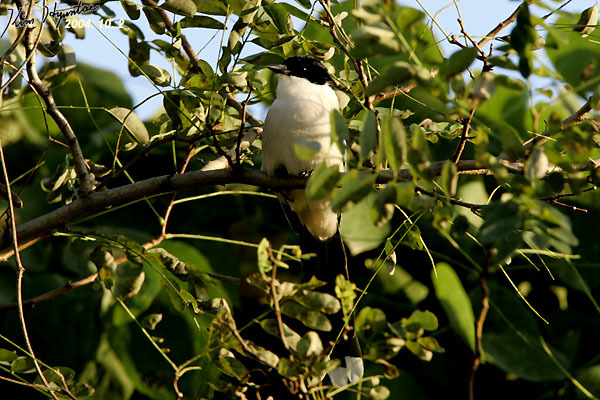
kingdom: Animalia
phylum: Chordata
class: Aves
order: Passeriformes
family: Corvidae
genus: Cyanopica
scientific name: Cyanopica cyanus
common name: Azure-winged magpie
